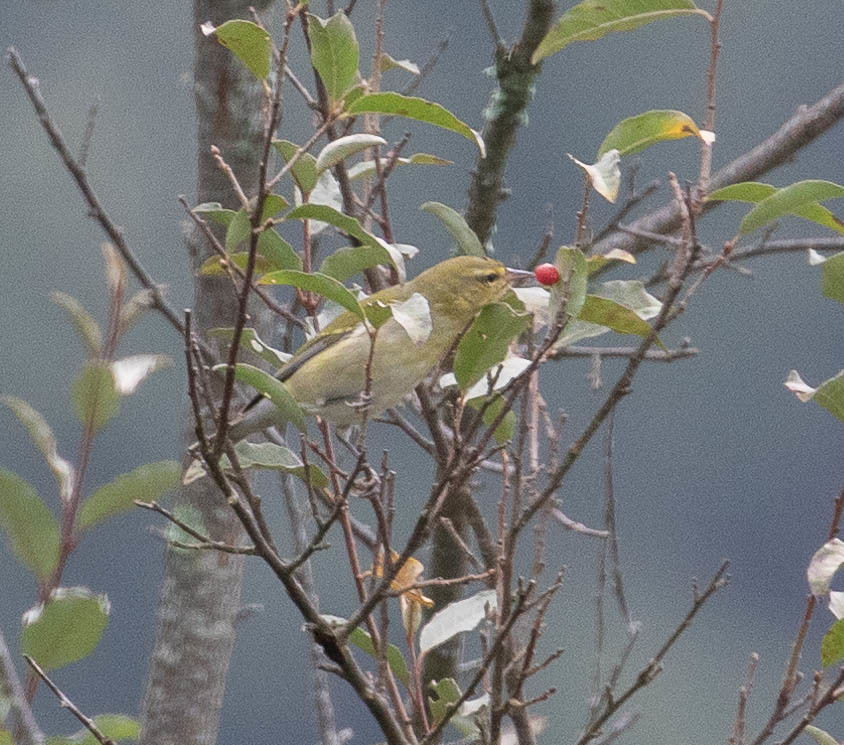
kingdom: Animalia
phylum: Chordata
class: Aves
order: Passeriformes
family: Parulidae
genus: Leiothlypis
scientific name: Leiothlypis peregrina
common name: Tennessee warbler
